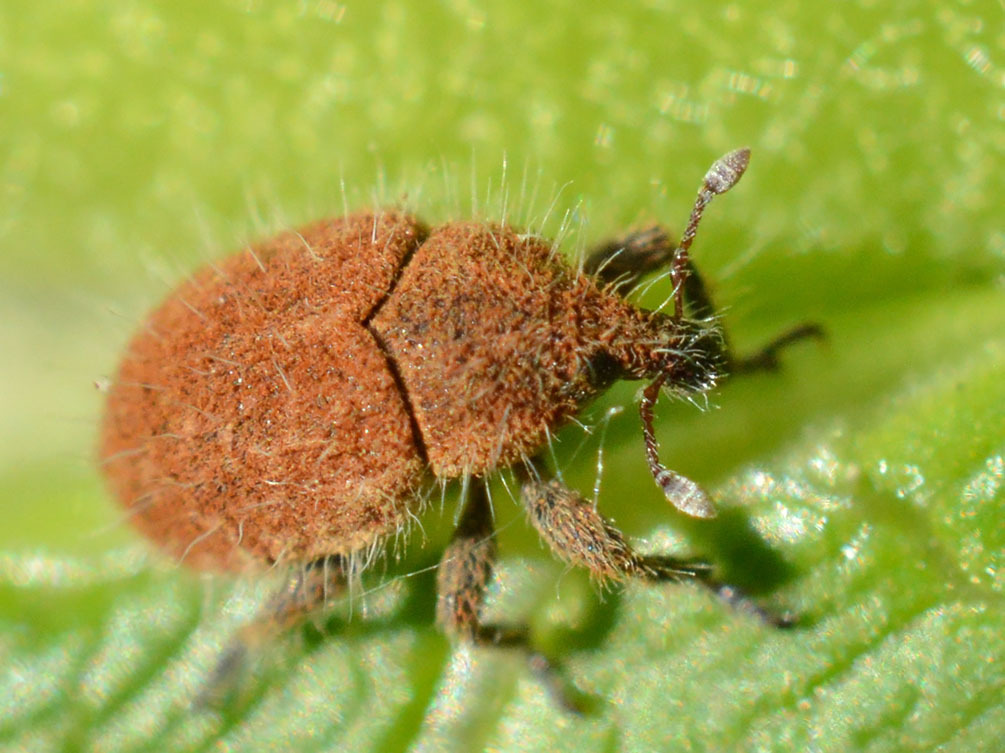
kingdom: Animalia
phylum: Arthropoda
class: Insecta
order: Coleoptera
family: Curculionidae
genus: Lachnaeus
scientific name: Lachnaeus crinitus
